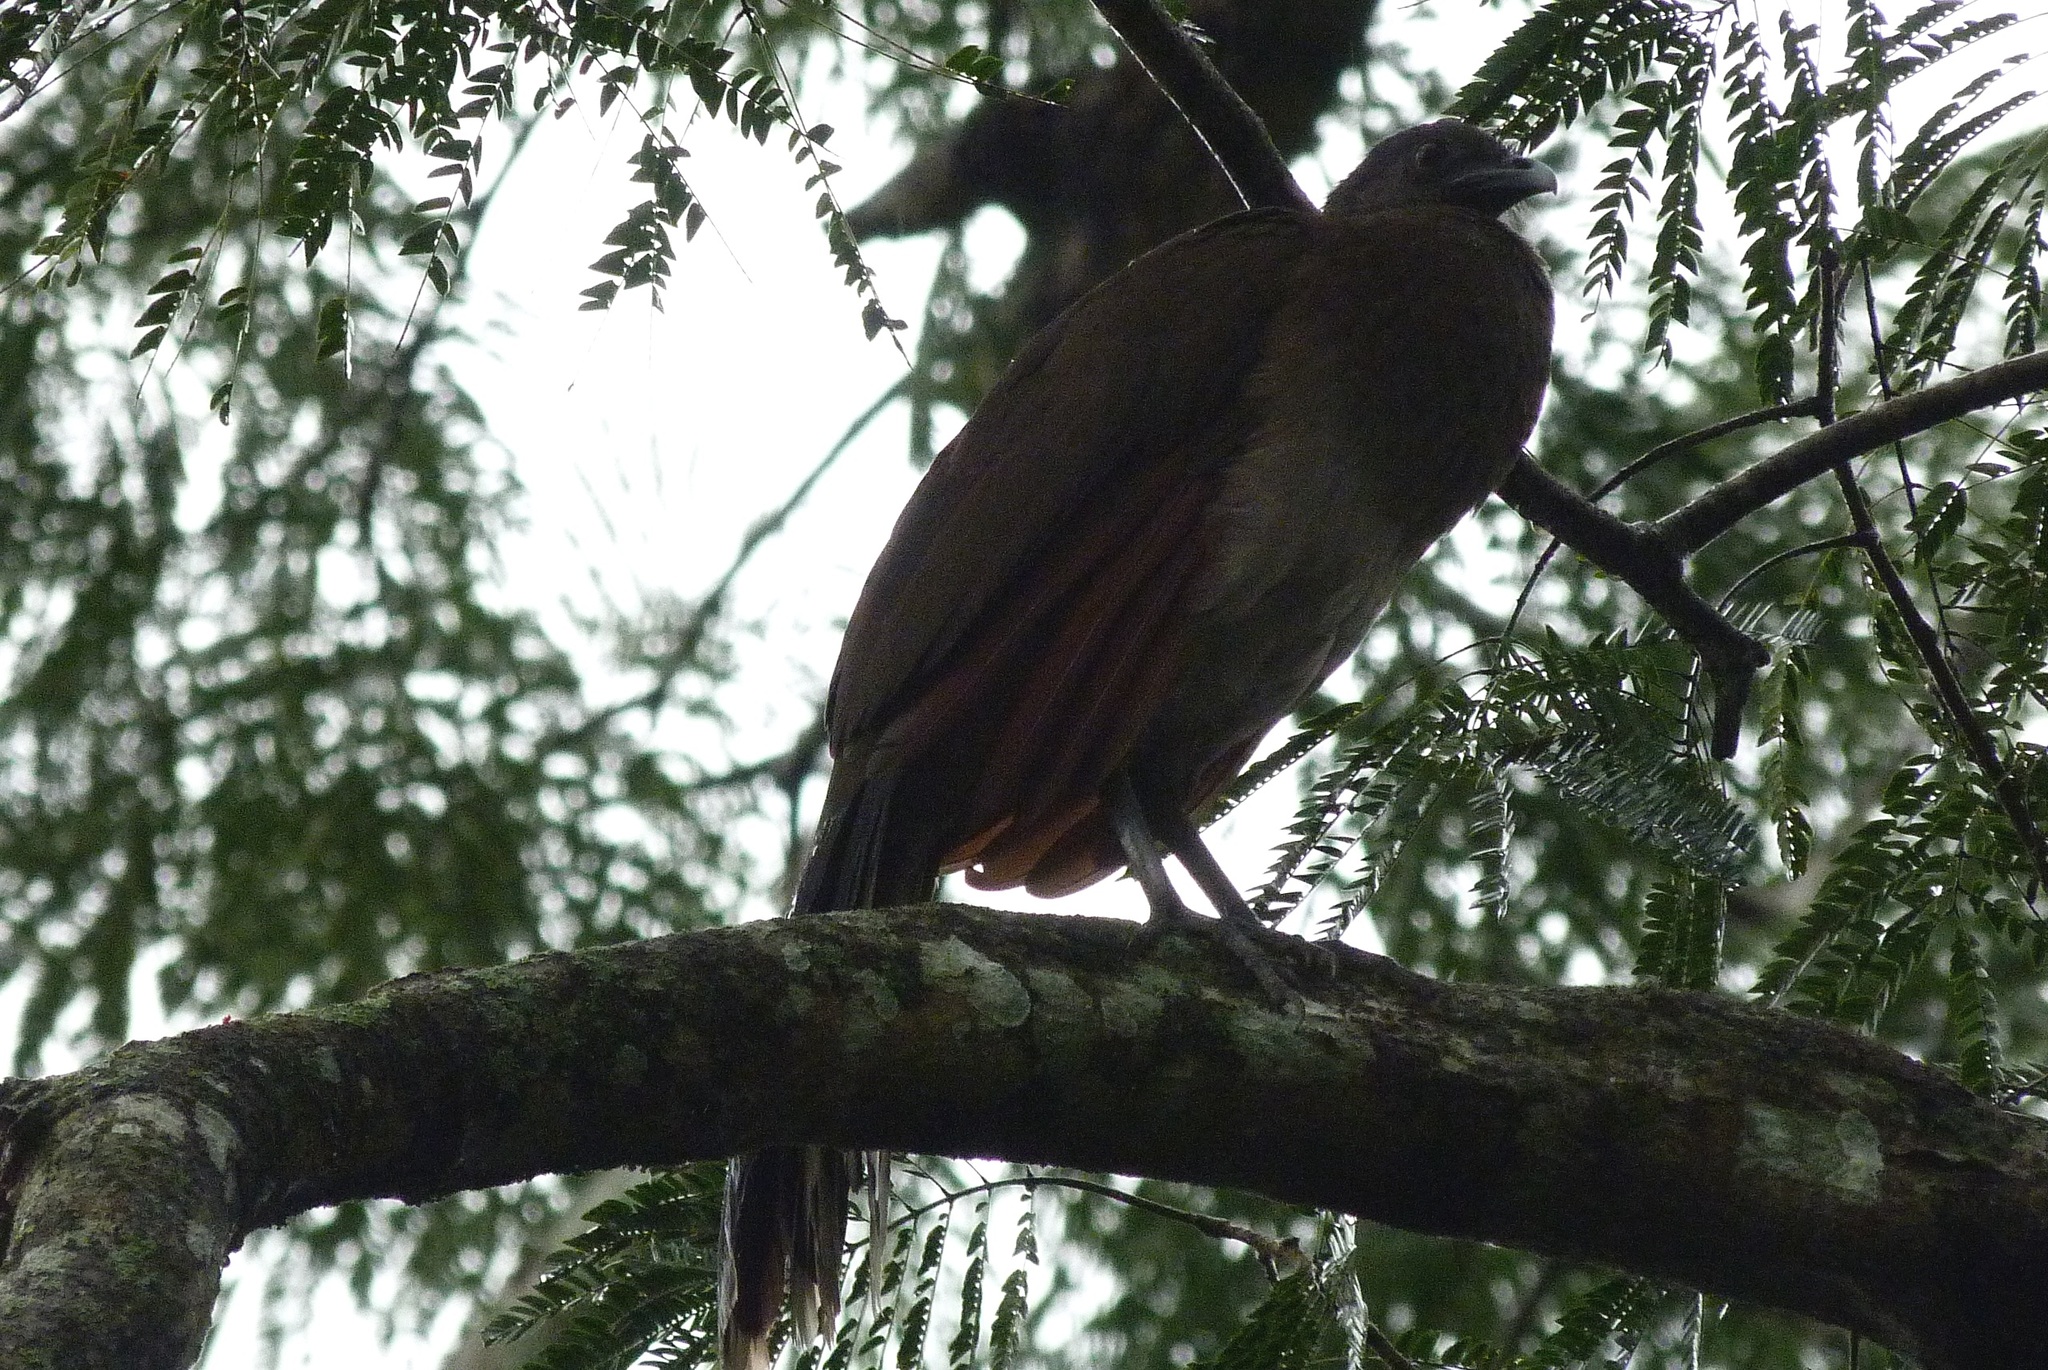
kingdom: Animalia
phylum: Chordata
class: Aves
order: Galliformes
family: Cracidae
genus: Ortalis
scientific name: Ortalis cinereiceps
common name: Grey-headed chachalaca
